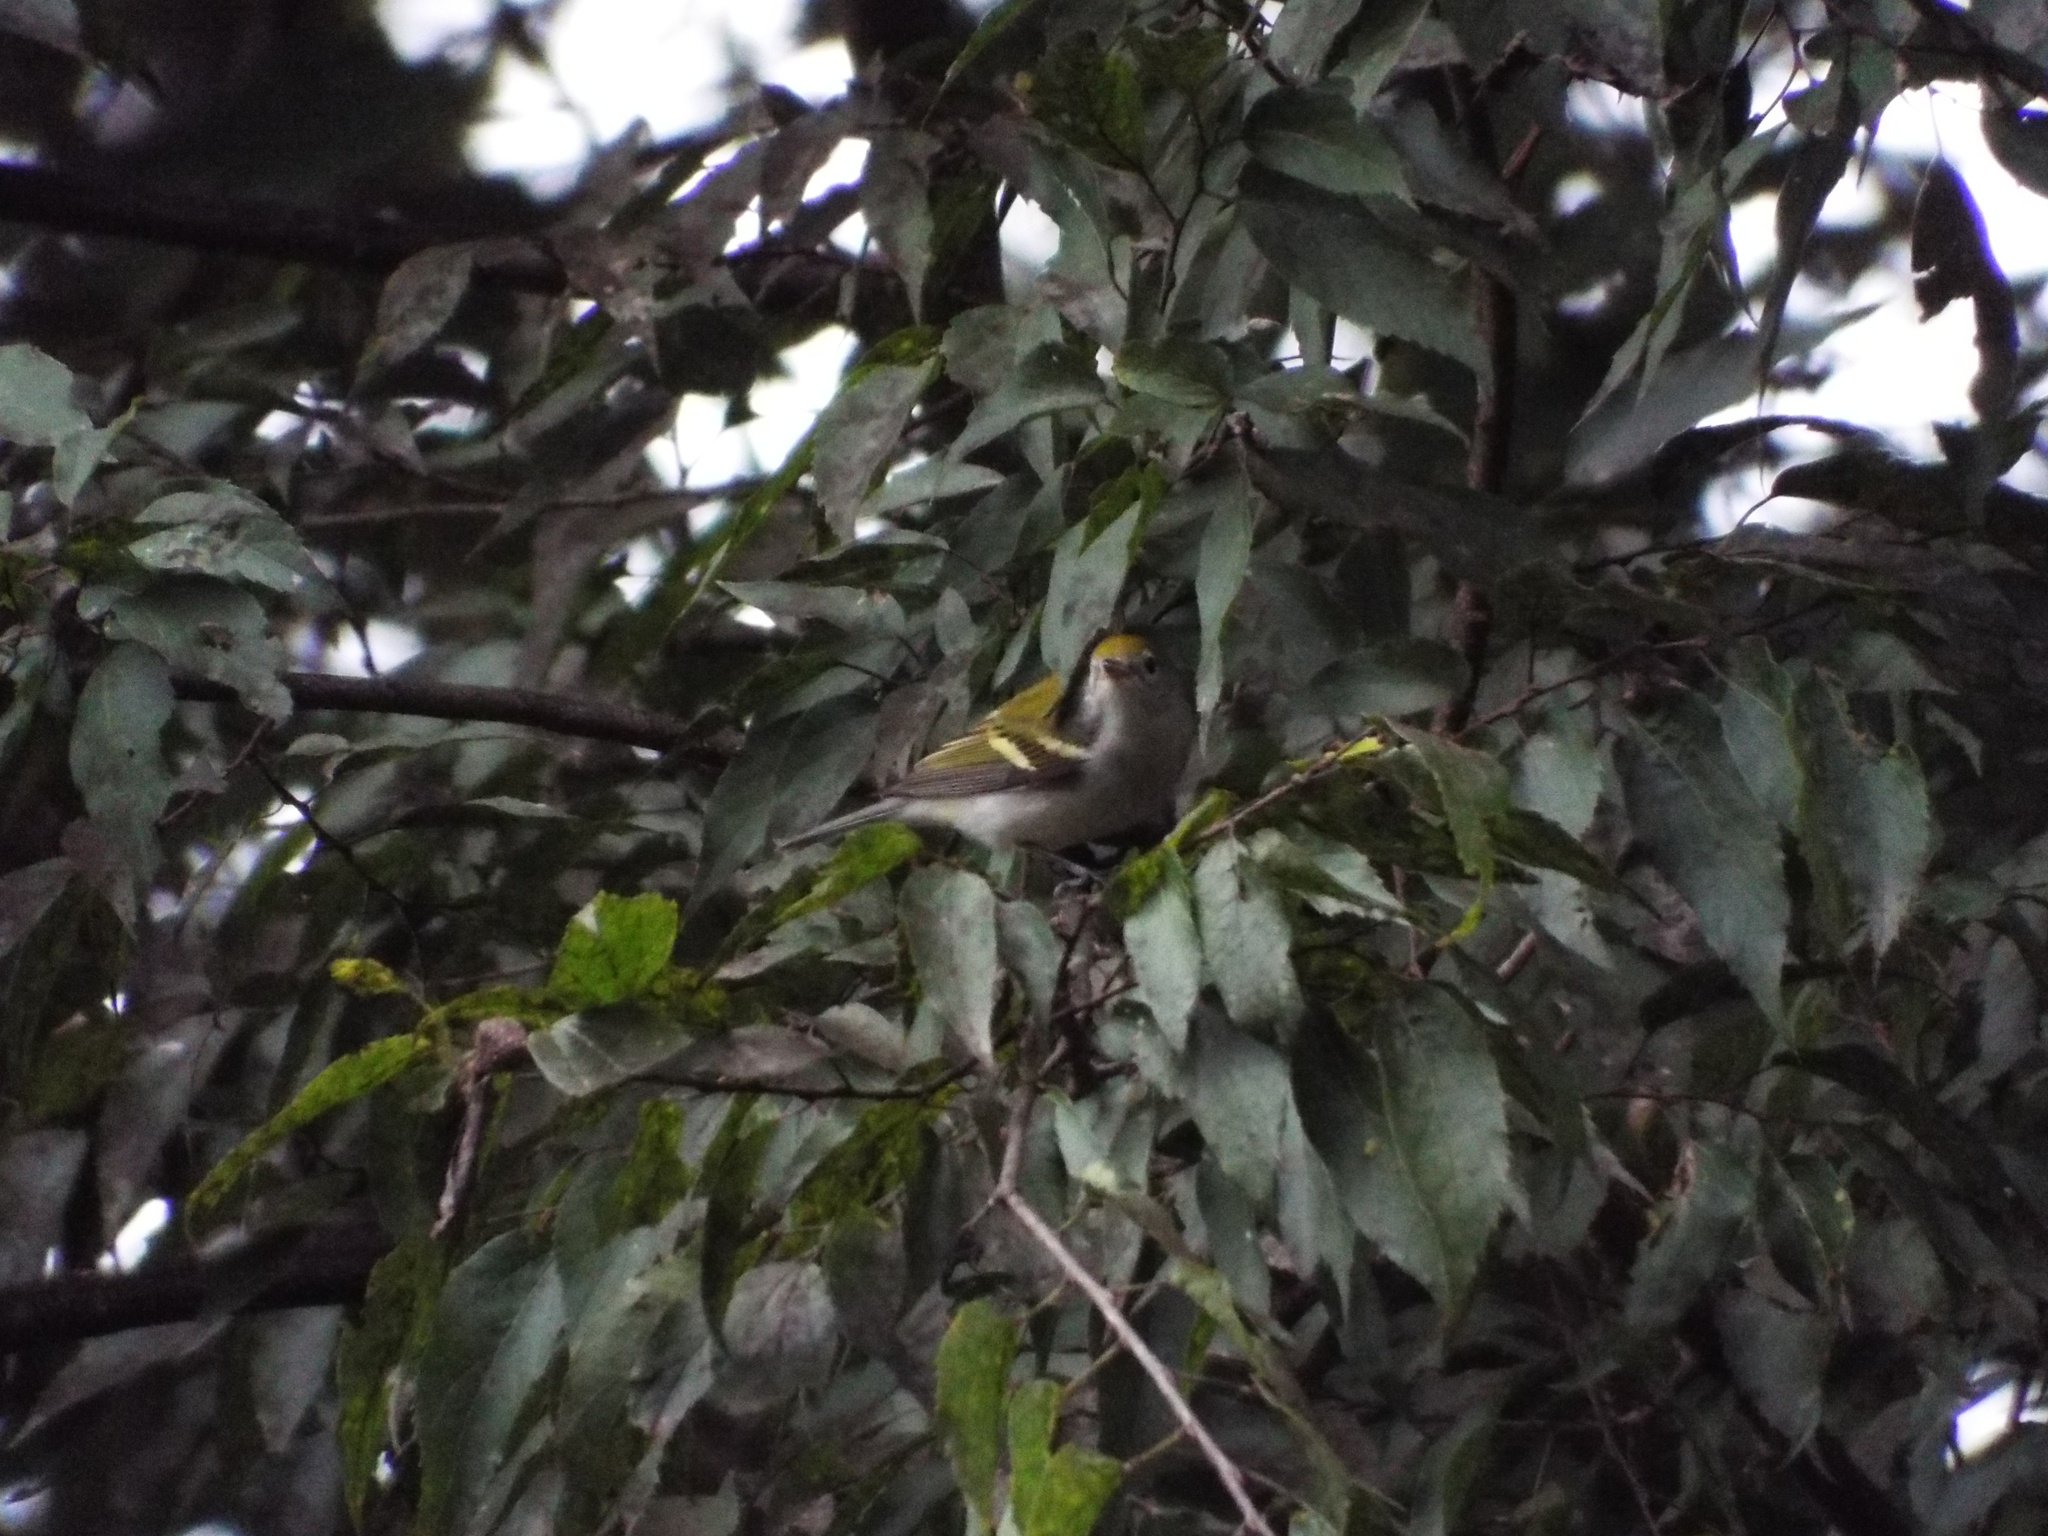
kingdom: Animalia
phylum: Chordata
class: Aves
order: Passeriformes
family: Parulidae
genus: Setophaga
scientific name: Setophaga pensylvanica
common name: Chestnut-sided warbler
